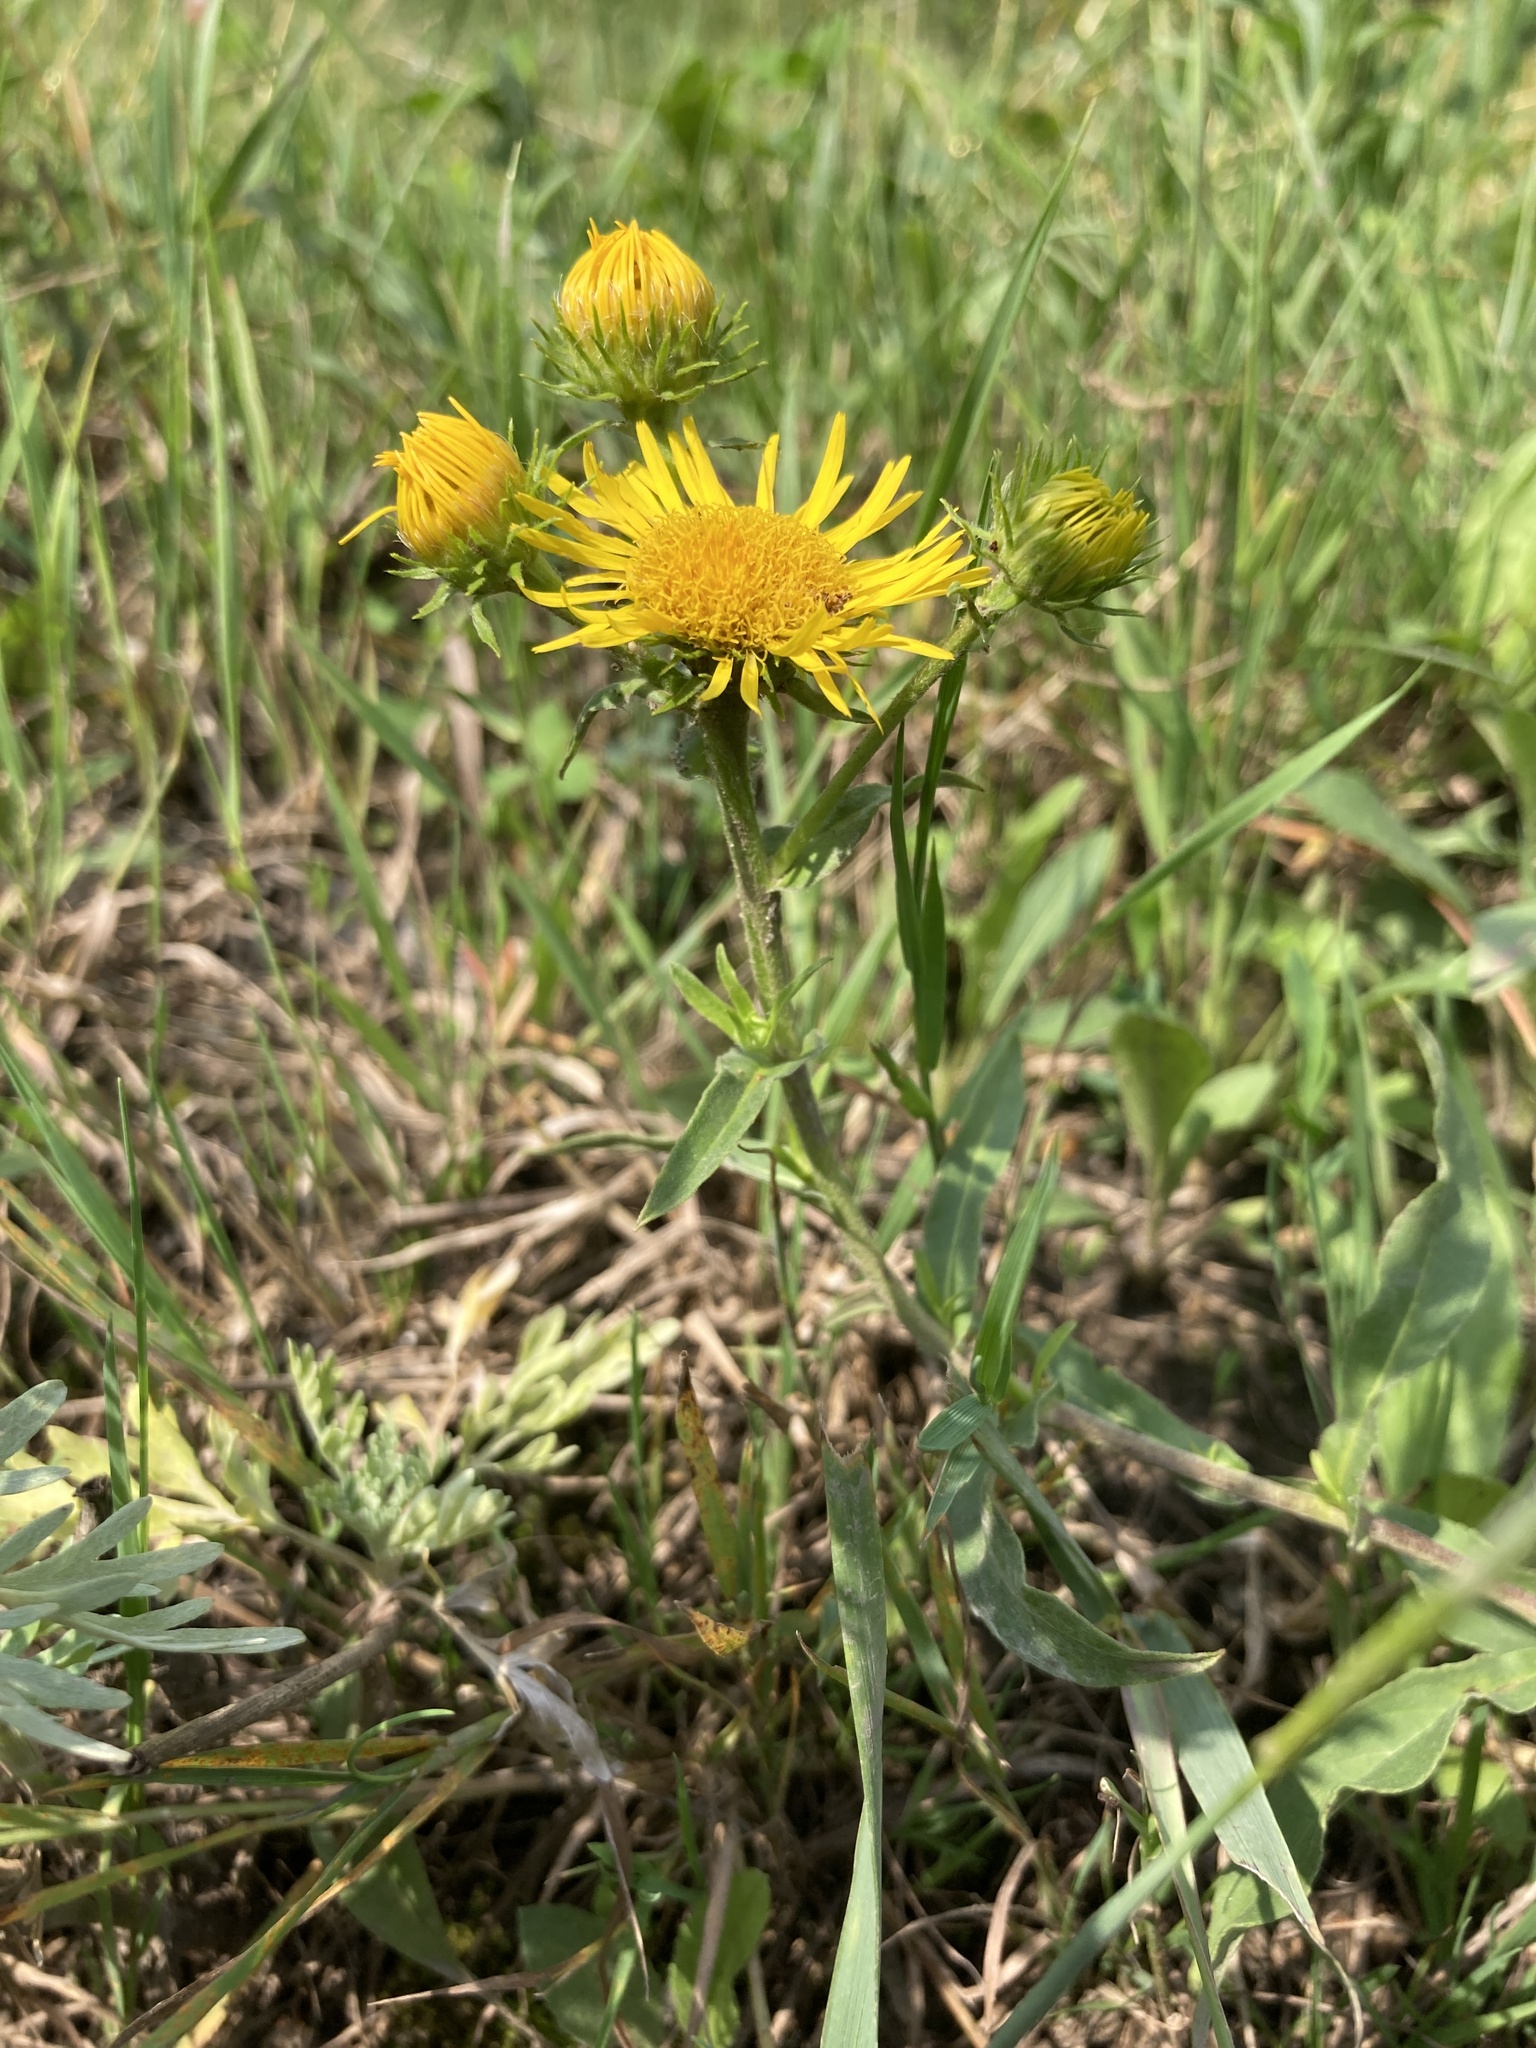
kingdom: Plantae
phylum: Tracheophyta
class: Magnoliopsida
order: Asterales
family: Asteraceae
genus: Pentanema
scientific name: Pentanema britannicum
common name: British elecampane
